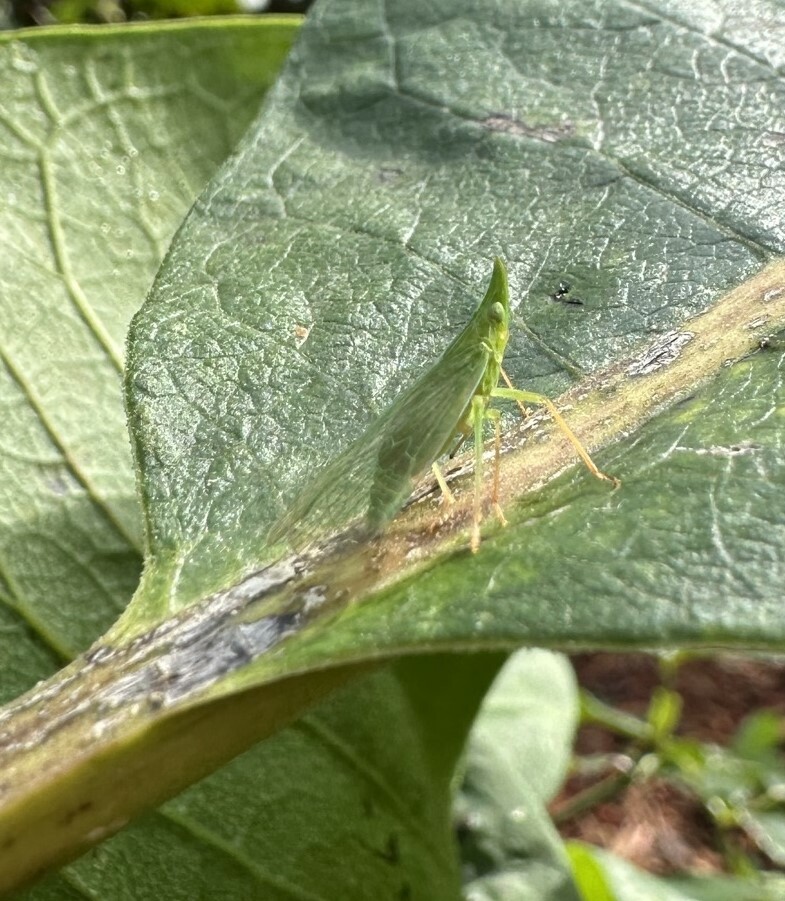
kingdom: Animalia
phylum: Arthropoda
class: Insecta
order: Hemiptera
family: Dictyopharidae
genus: Rhynchomitra
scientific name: Rhynchomitra microrhina
